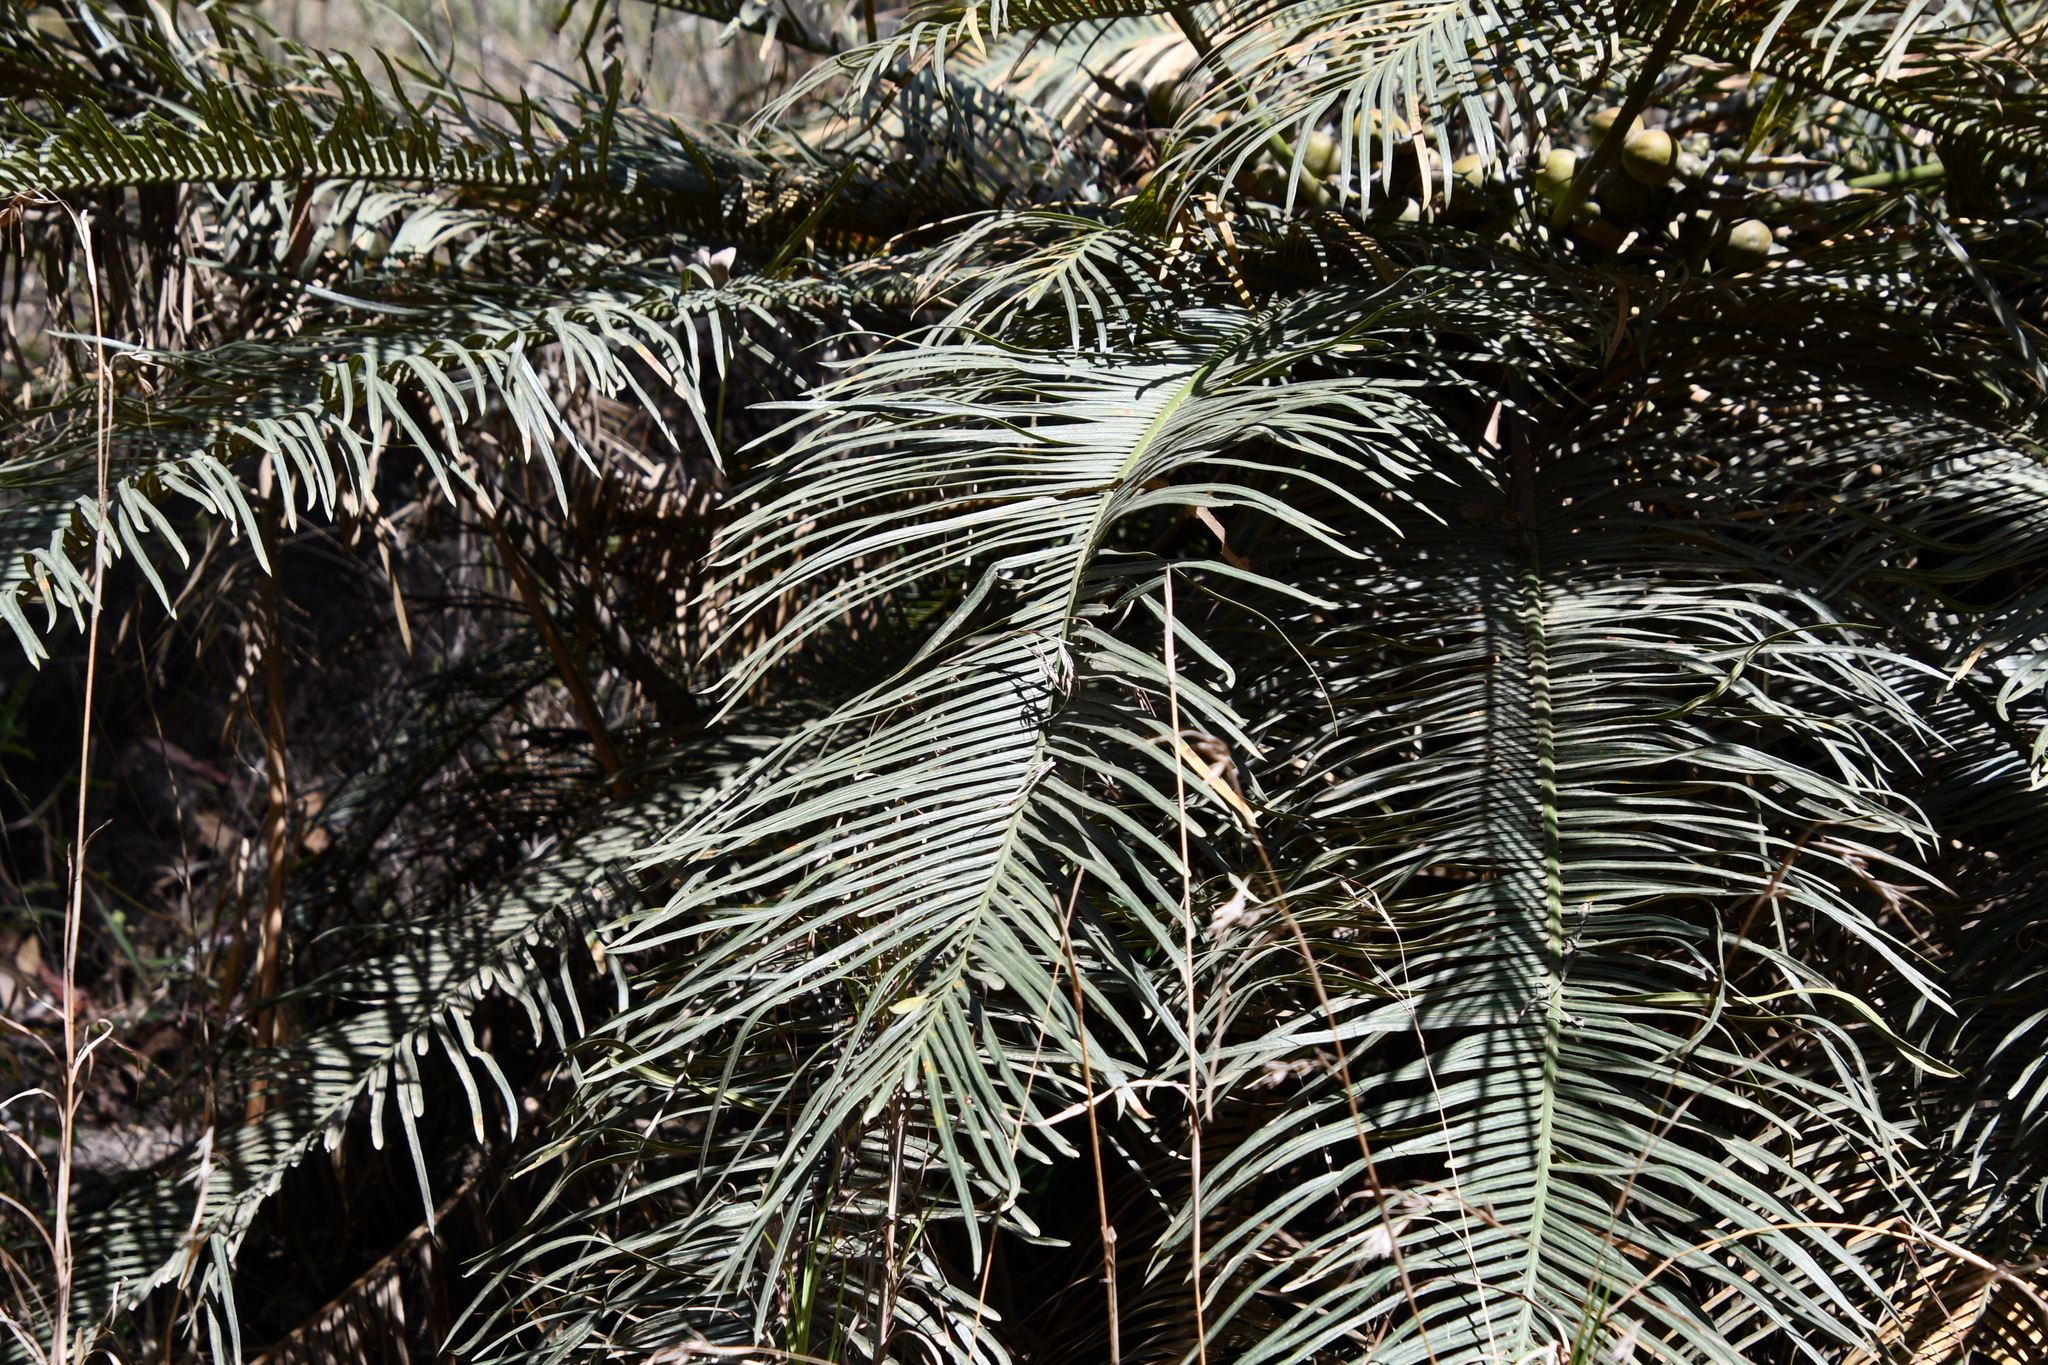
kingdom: Plantae
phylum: Tracheophyta
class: Cycadopsida
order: Cycadales
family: Cycadaceae
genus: Cycas
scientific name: Cycas media
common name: Queensland cycas
